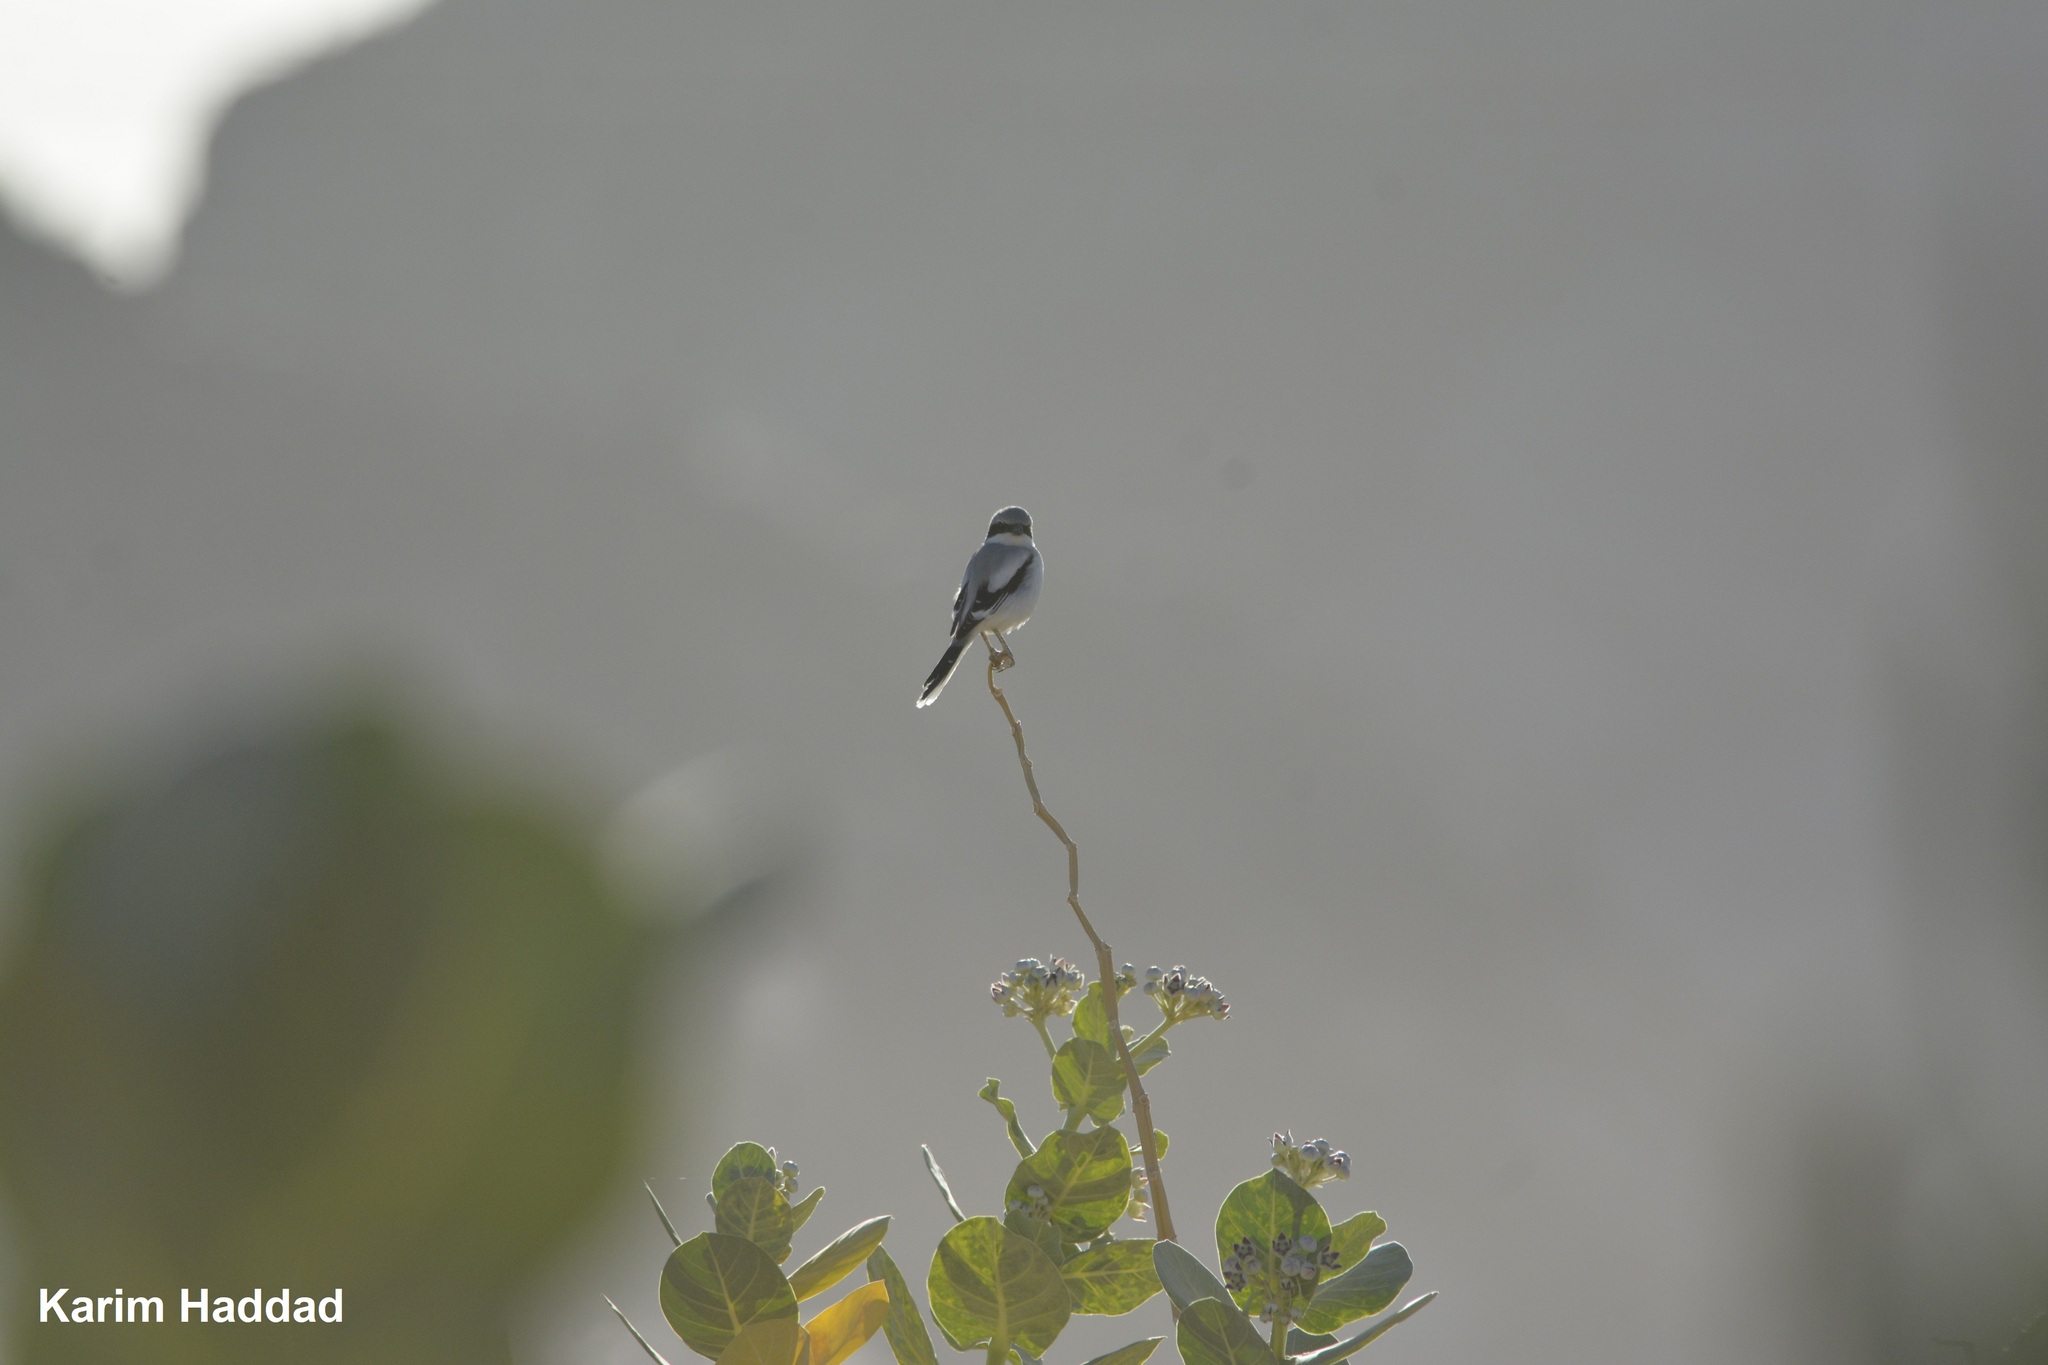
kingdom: Animalia
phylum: Chordata
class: Aves
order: Passeriformes
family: Laniidae
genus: Lanius
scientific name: Lanius excubitor
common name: Great grey shrike
